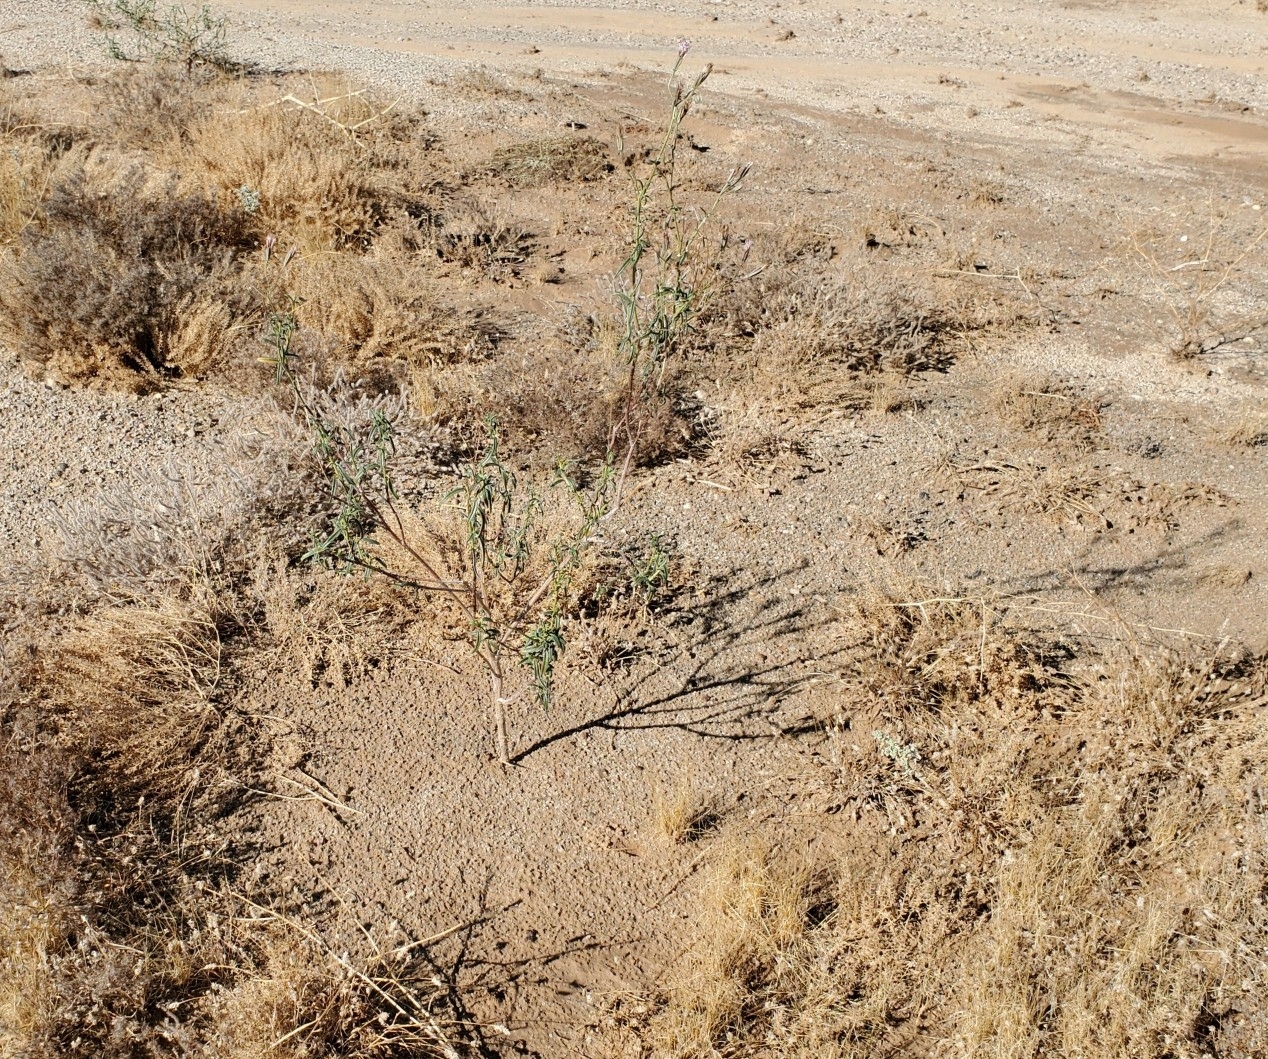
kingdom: Plantae
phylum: Tracheophyta
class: Magnoliopsida
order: Asterales
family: Asteraceae
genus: Palafoxia
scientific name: Palafoxia arida
